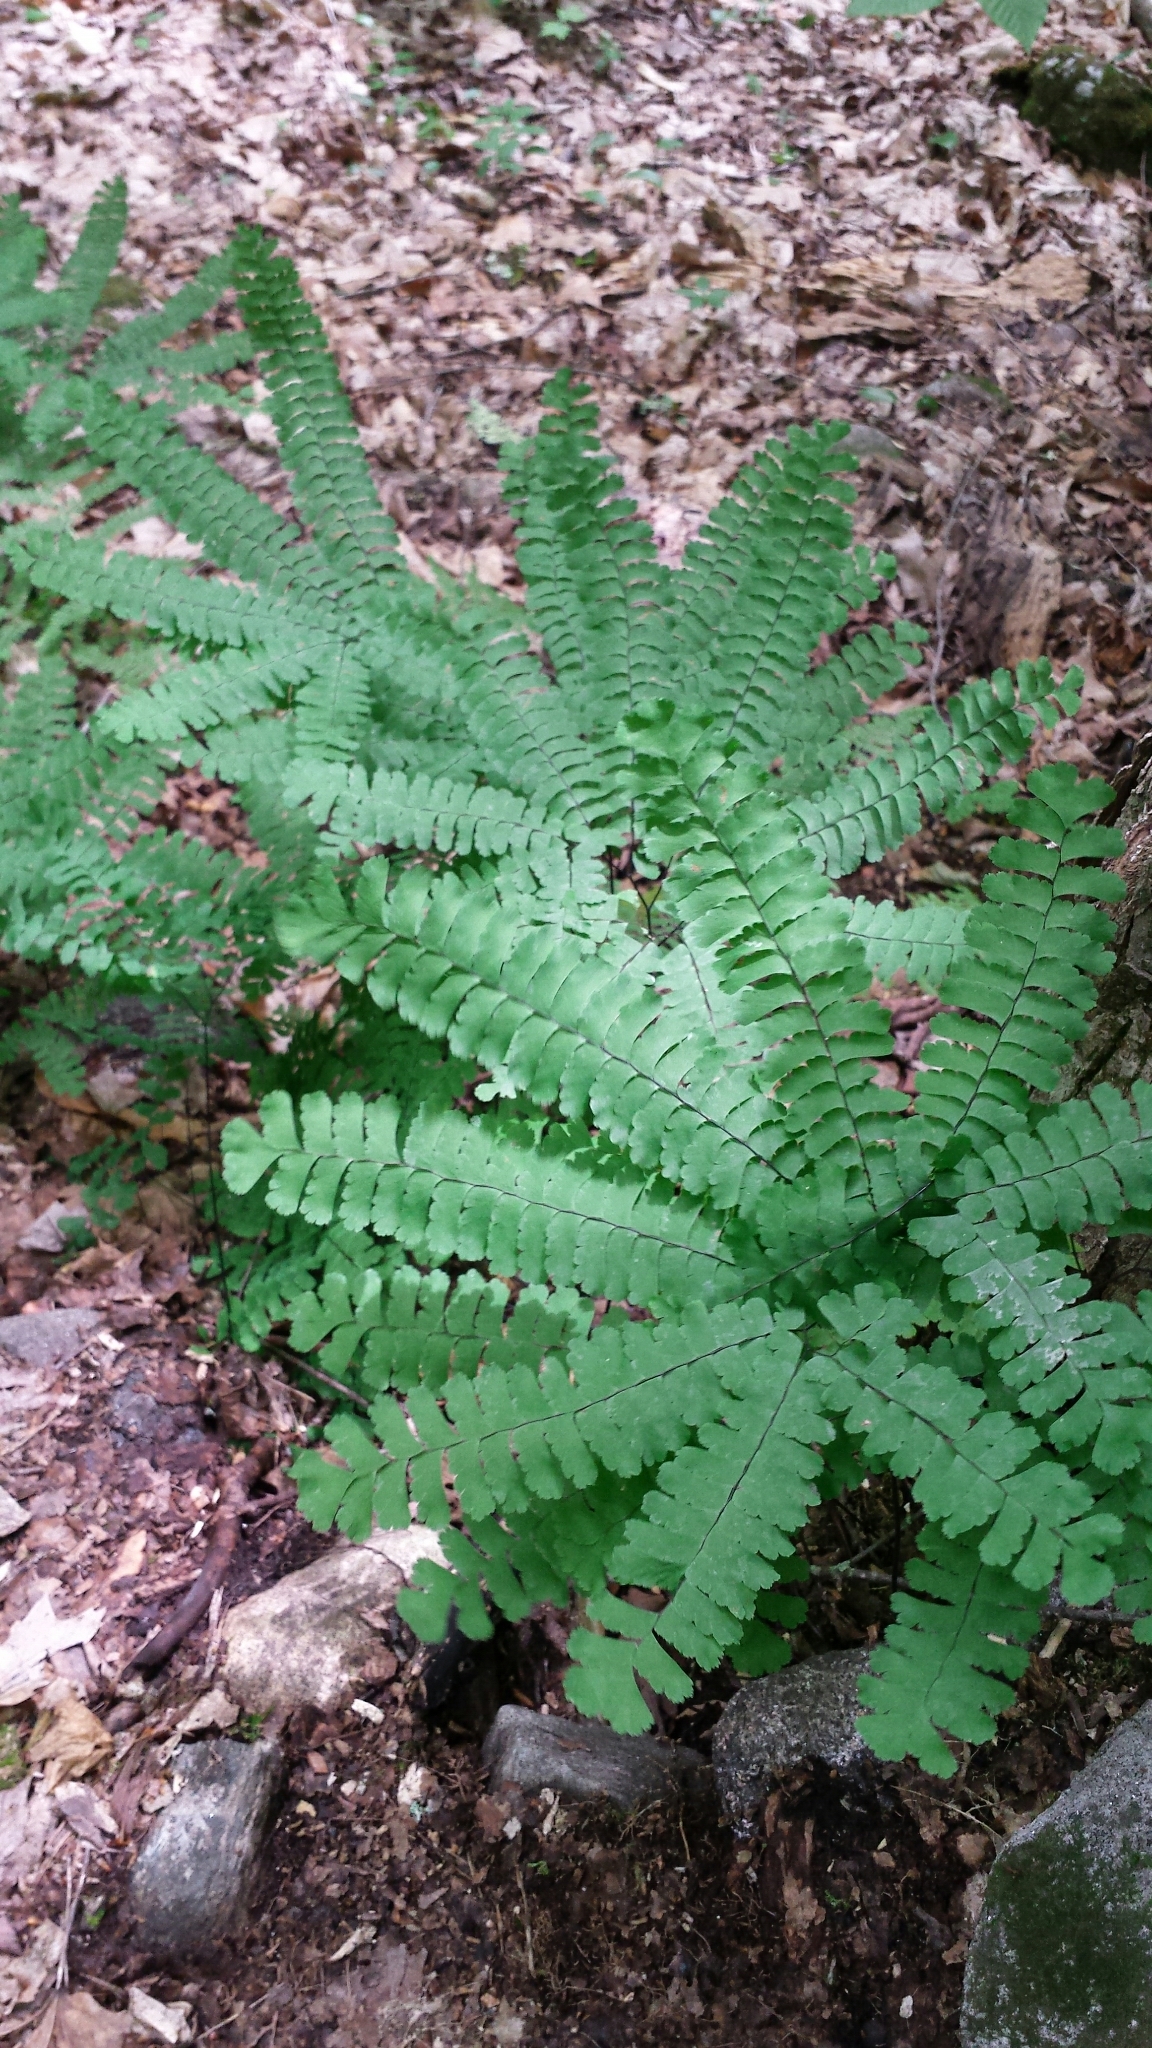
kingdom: Plantae
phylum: Tracheophyta
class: Polypodiopsida
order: Polypodiales
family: Pteridaceae
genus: Adiantum
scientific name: Adiantum pedatum
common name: Five-finger fern
